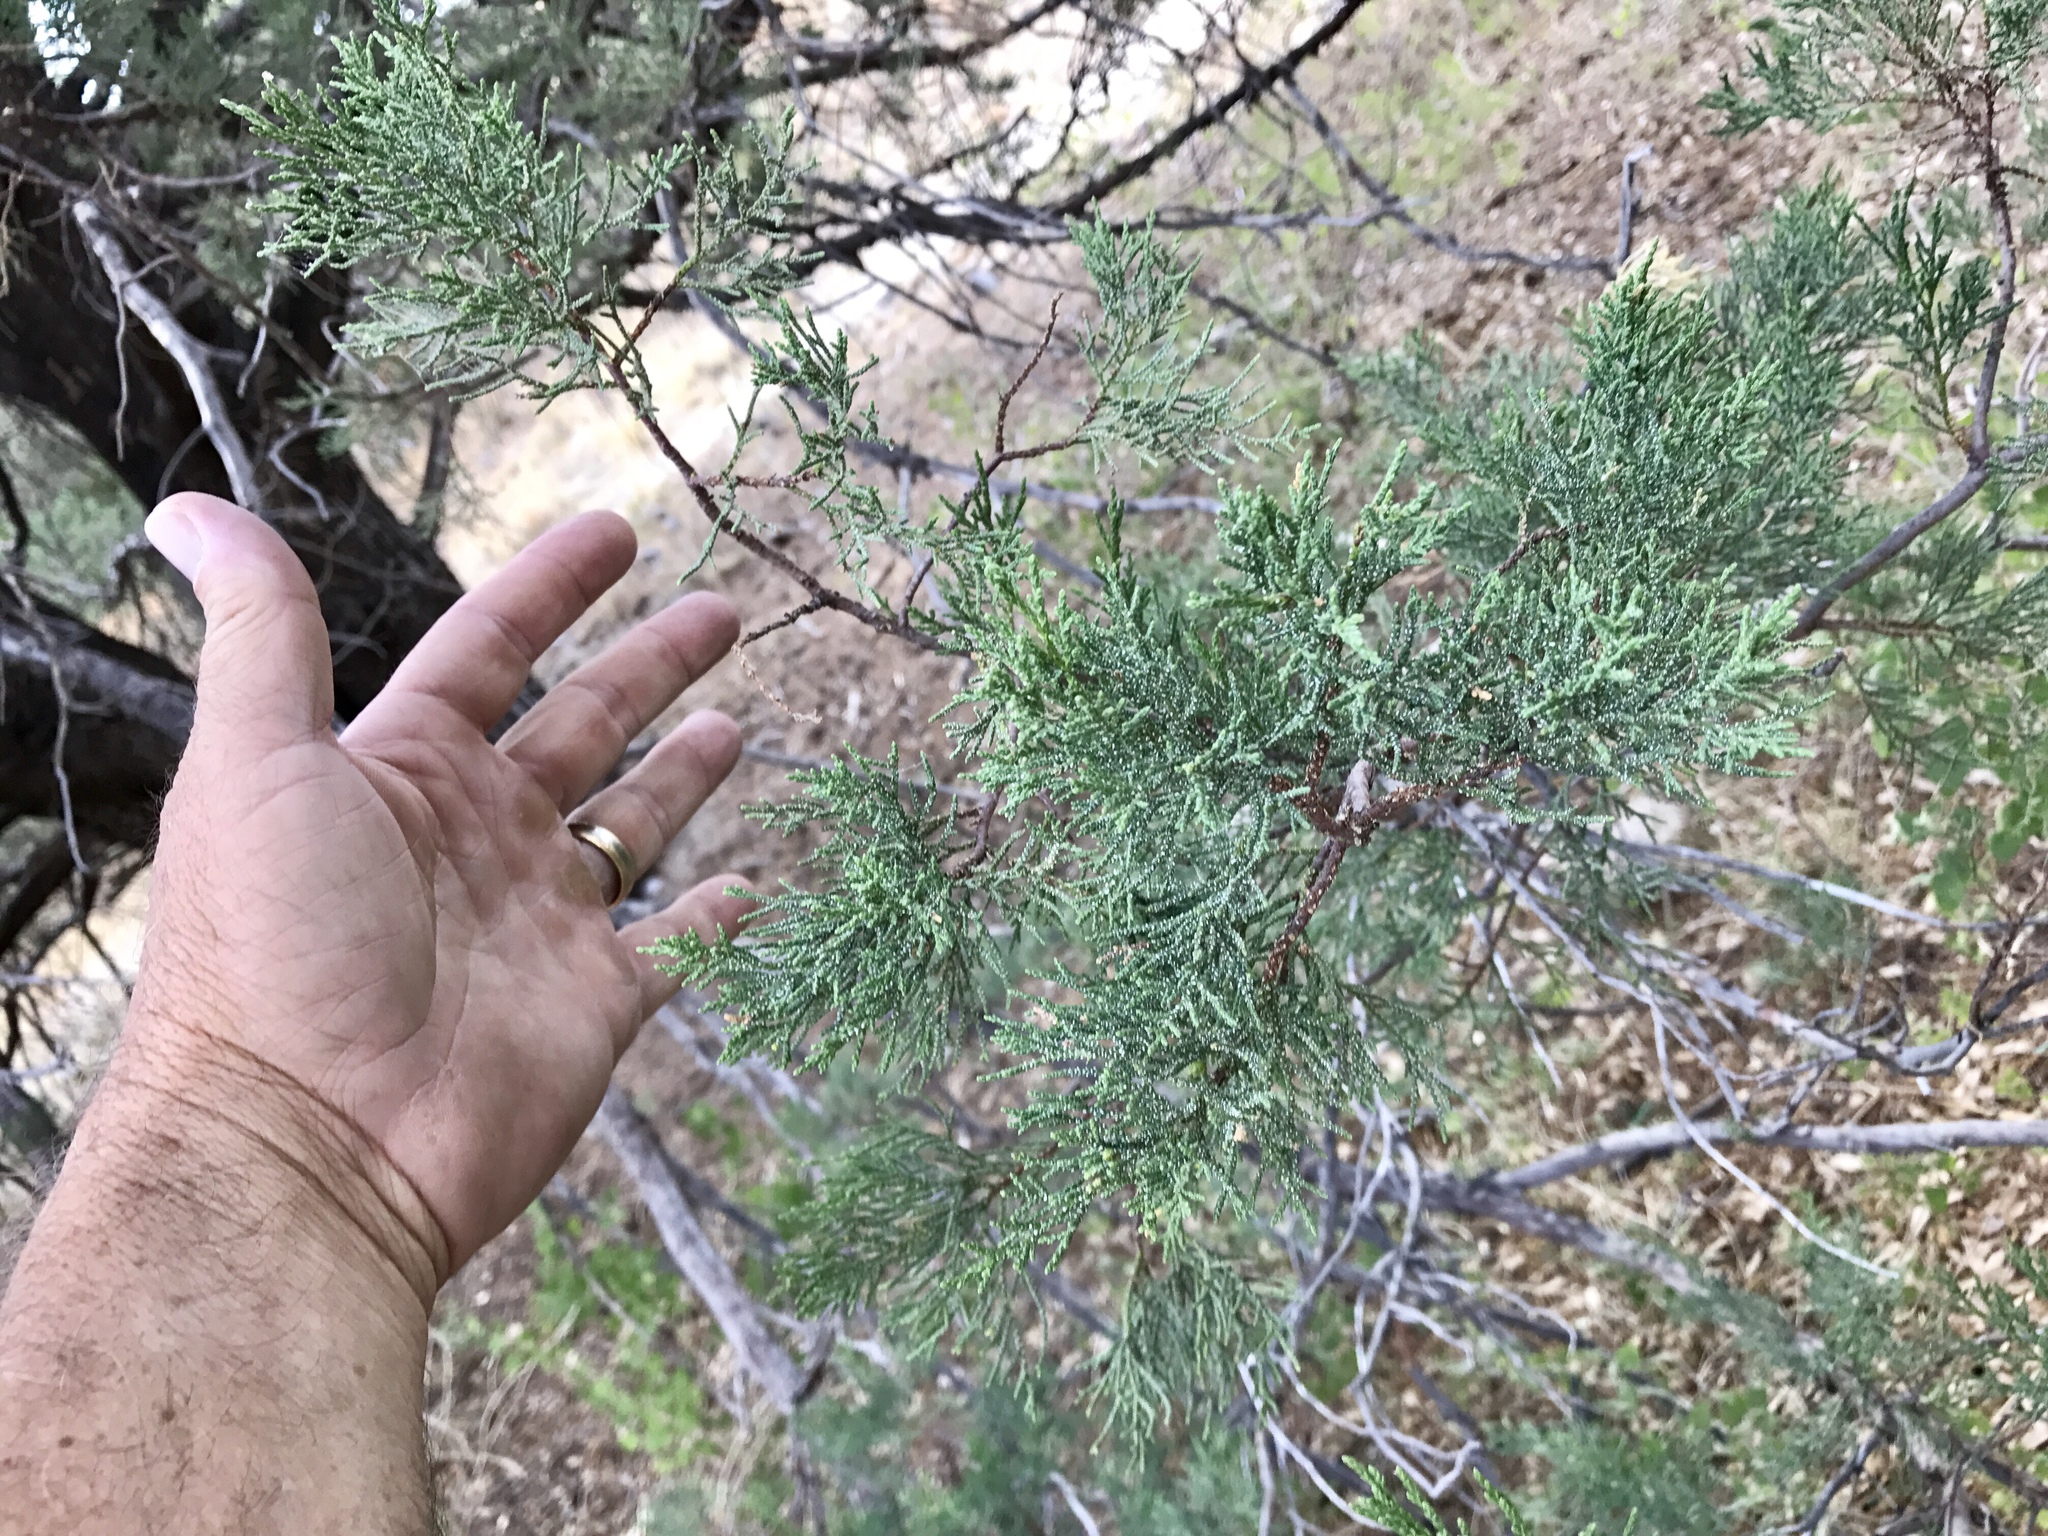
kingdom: Plantae
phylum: Tracheophyta
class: Pinopsida
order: Pinales
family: Cupressaceae
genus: Juniperus
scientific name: Juniperus deppeana
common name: Alligator juniper
